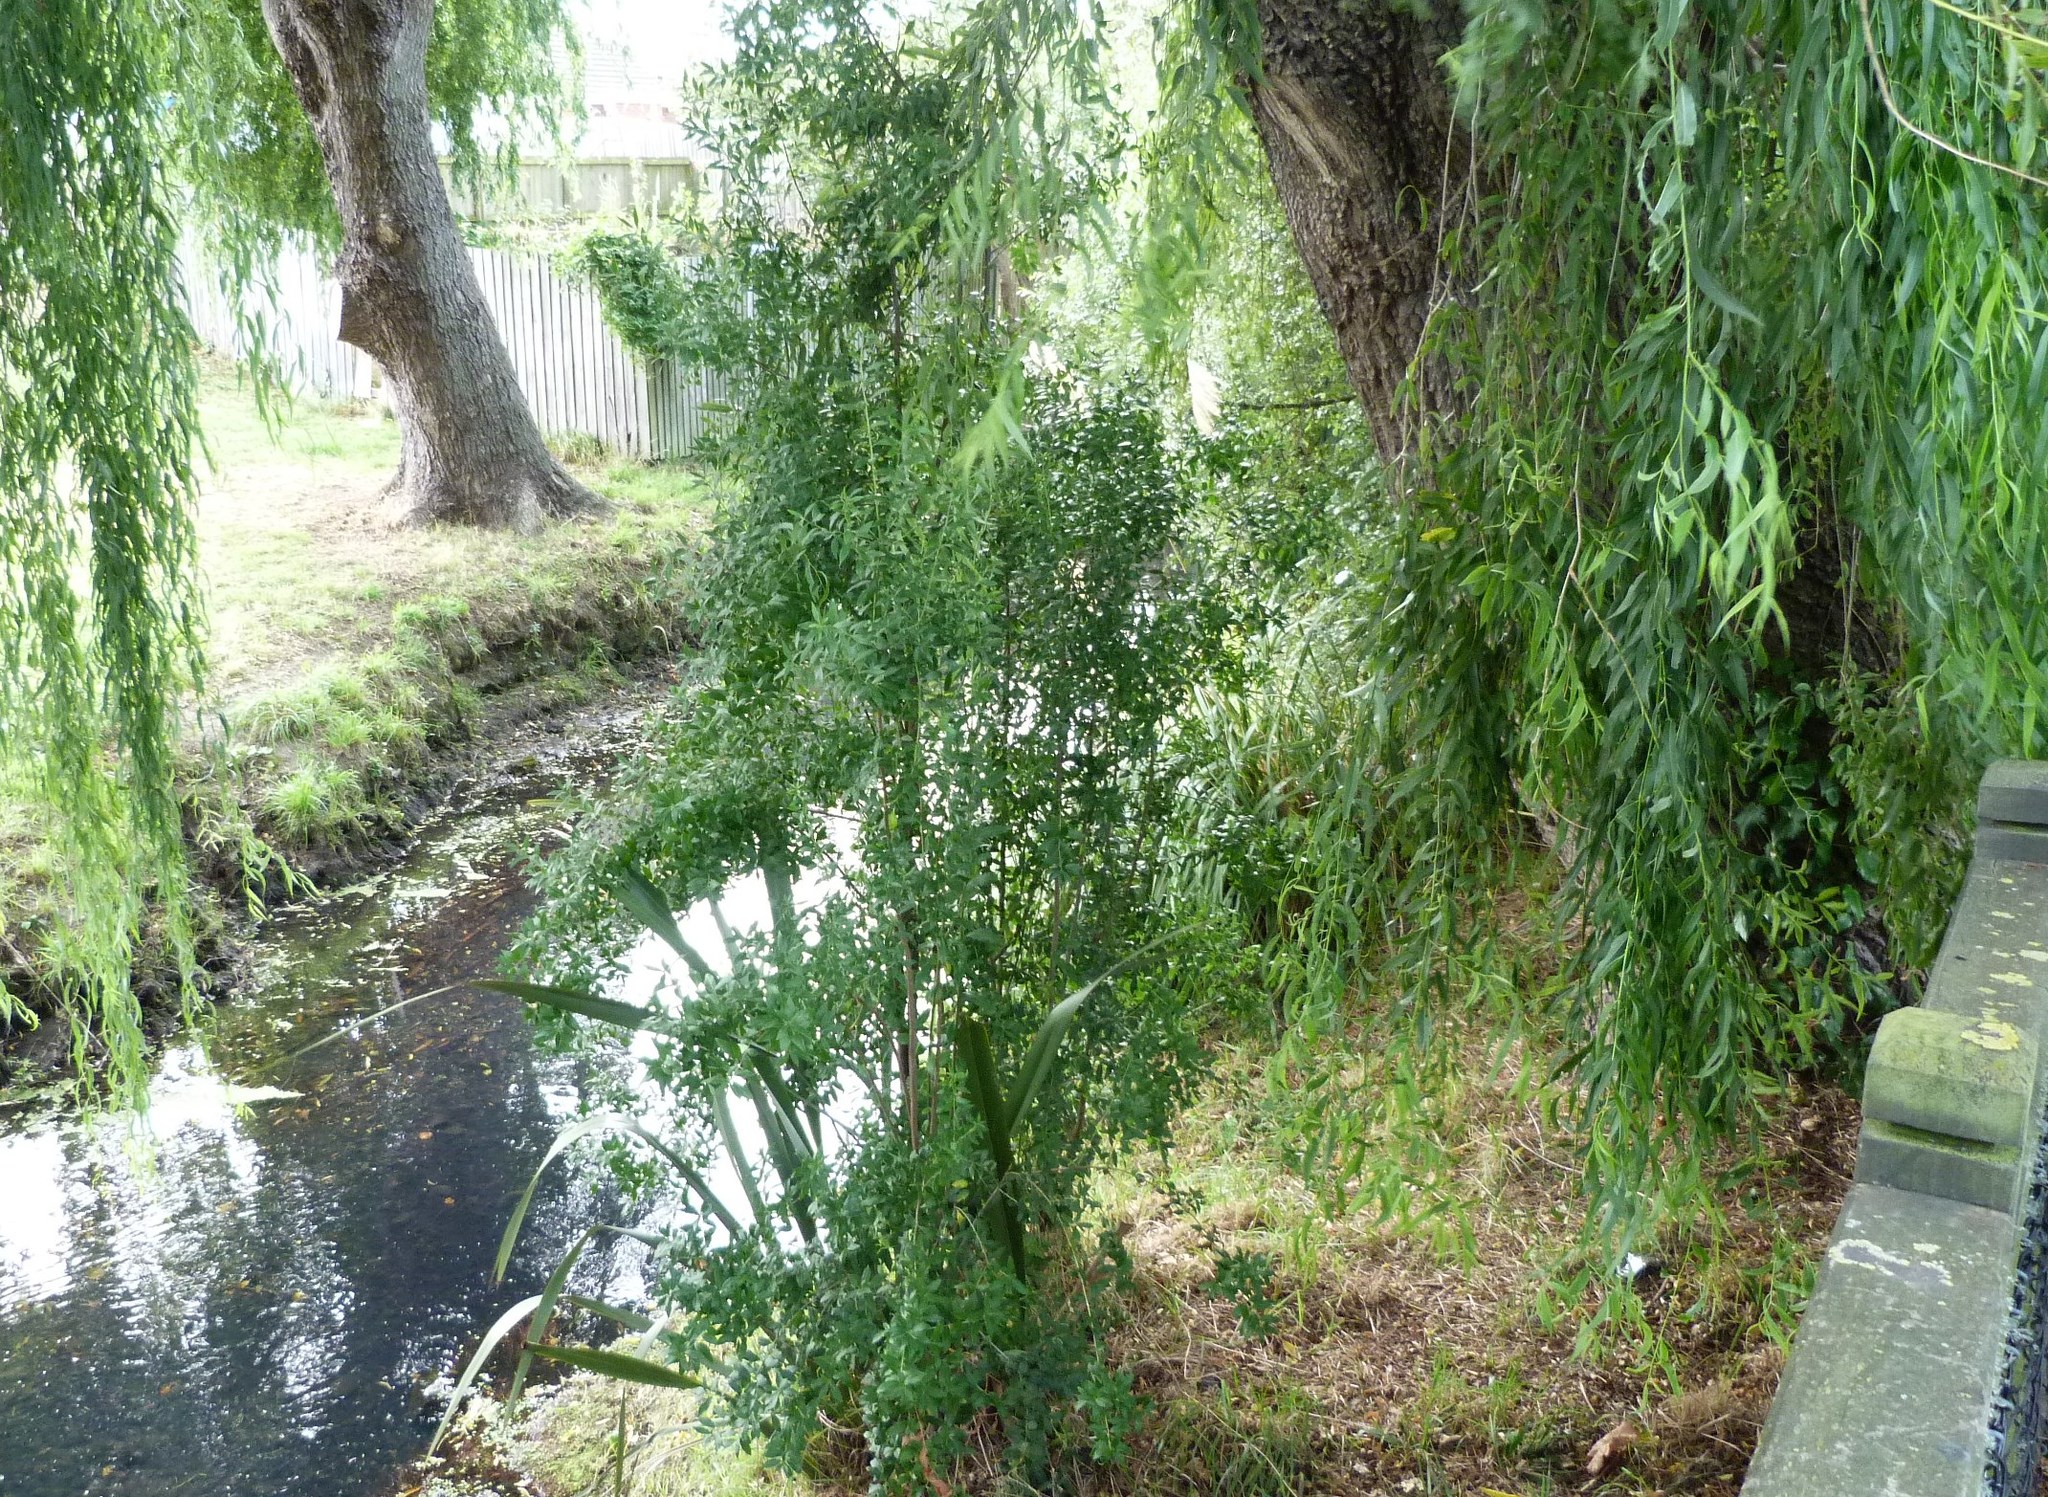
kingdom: Plantae
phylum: Tracheophyta
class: Magnoliopsida
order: Celastrales
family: Celastraceae
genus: Maytenus
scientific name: Maytenus boaria
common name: Mayten
